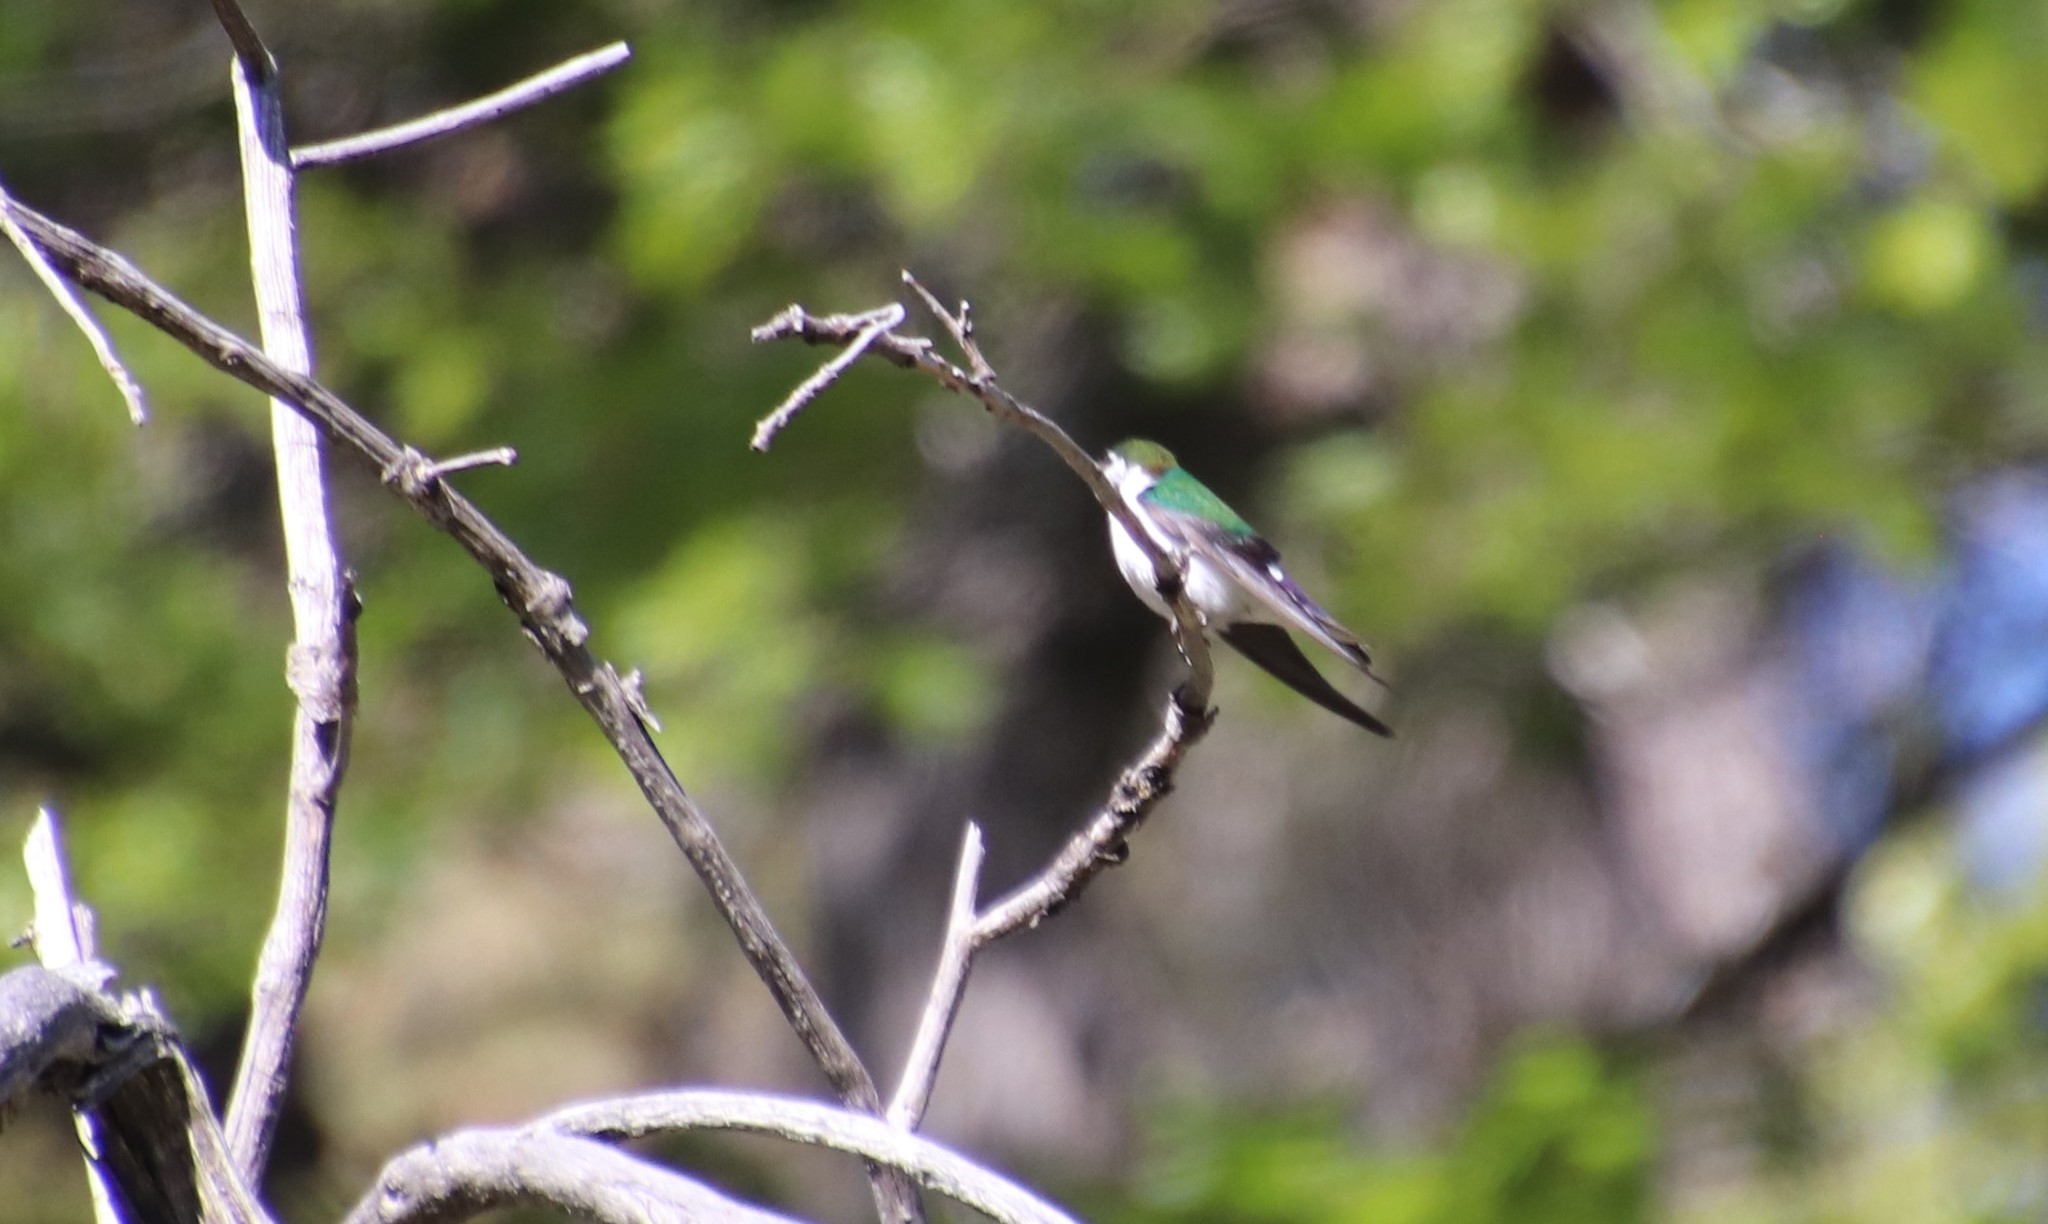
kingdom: Animalia
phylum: Chordata
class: Aves
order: Passeriformes
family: Hirundinidae
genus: Tachycineta
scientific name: Tachycineta thalassina
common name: Violet-green swallow
